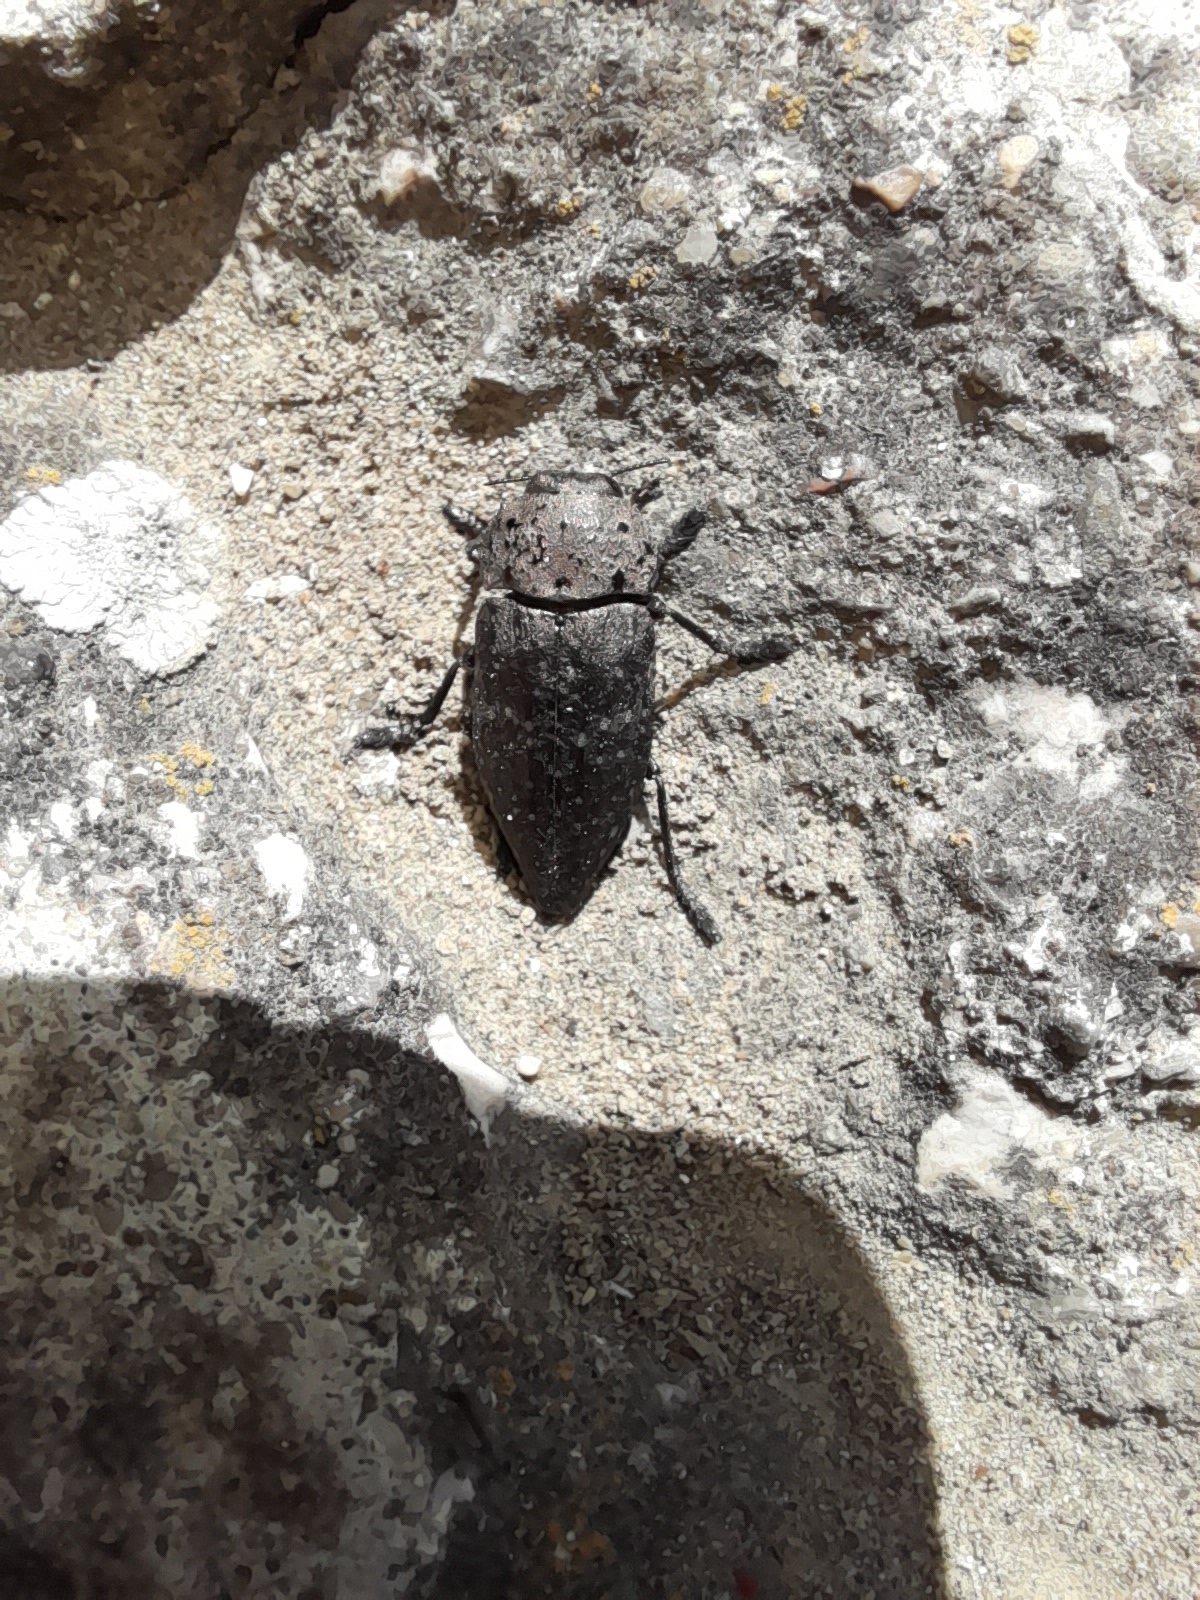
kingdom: Animalia
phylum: Arthropoda
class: Insecta
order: Coleoptera
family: Buprestidae
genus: Capnodis
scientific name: Capnodis tenebricosa
